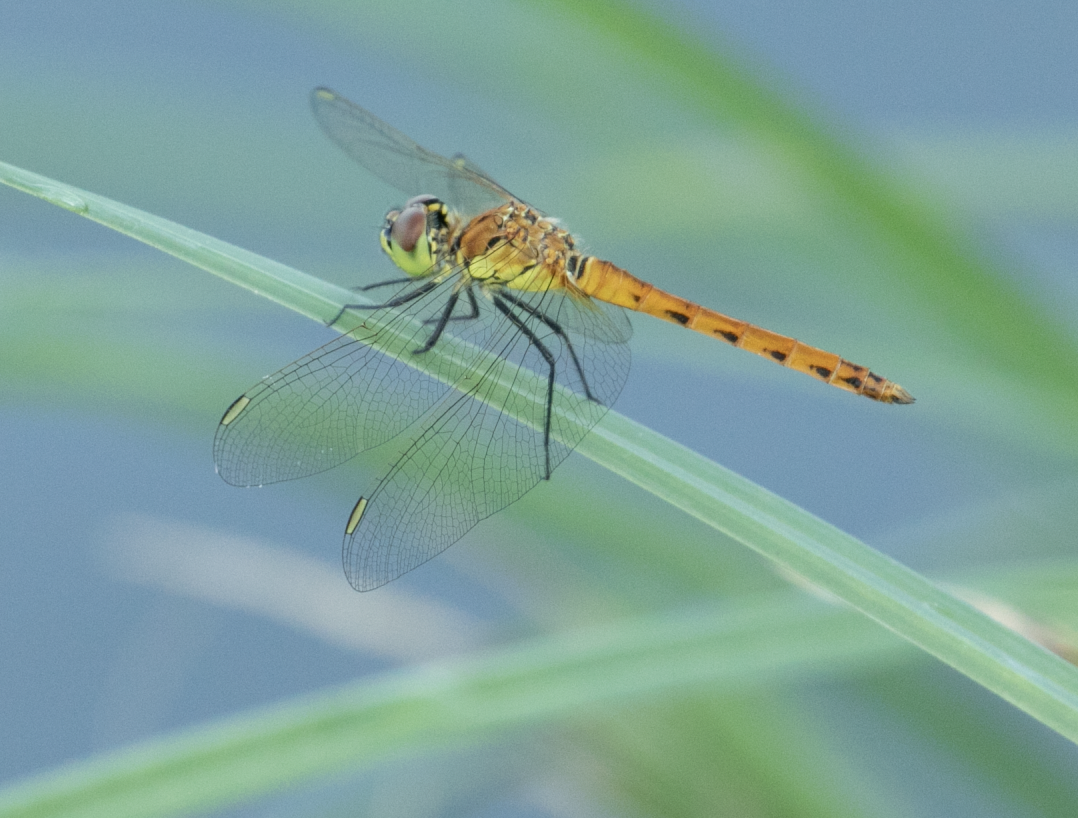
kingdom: Animalia
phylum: Arthropoda
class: Insecta
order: Odonata
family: Libellulidae
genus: Sympetrum
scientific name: Sympetrum depressiusculum
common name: Spotted darter
